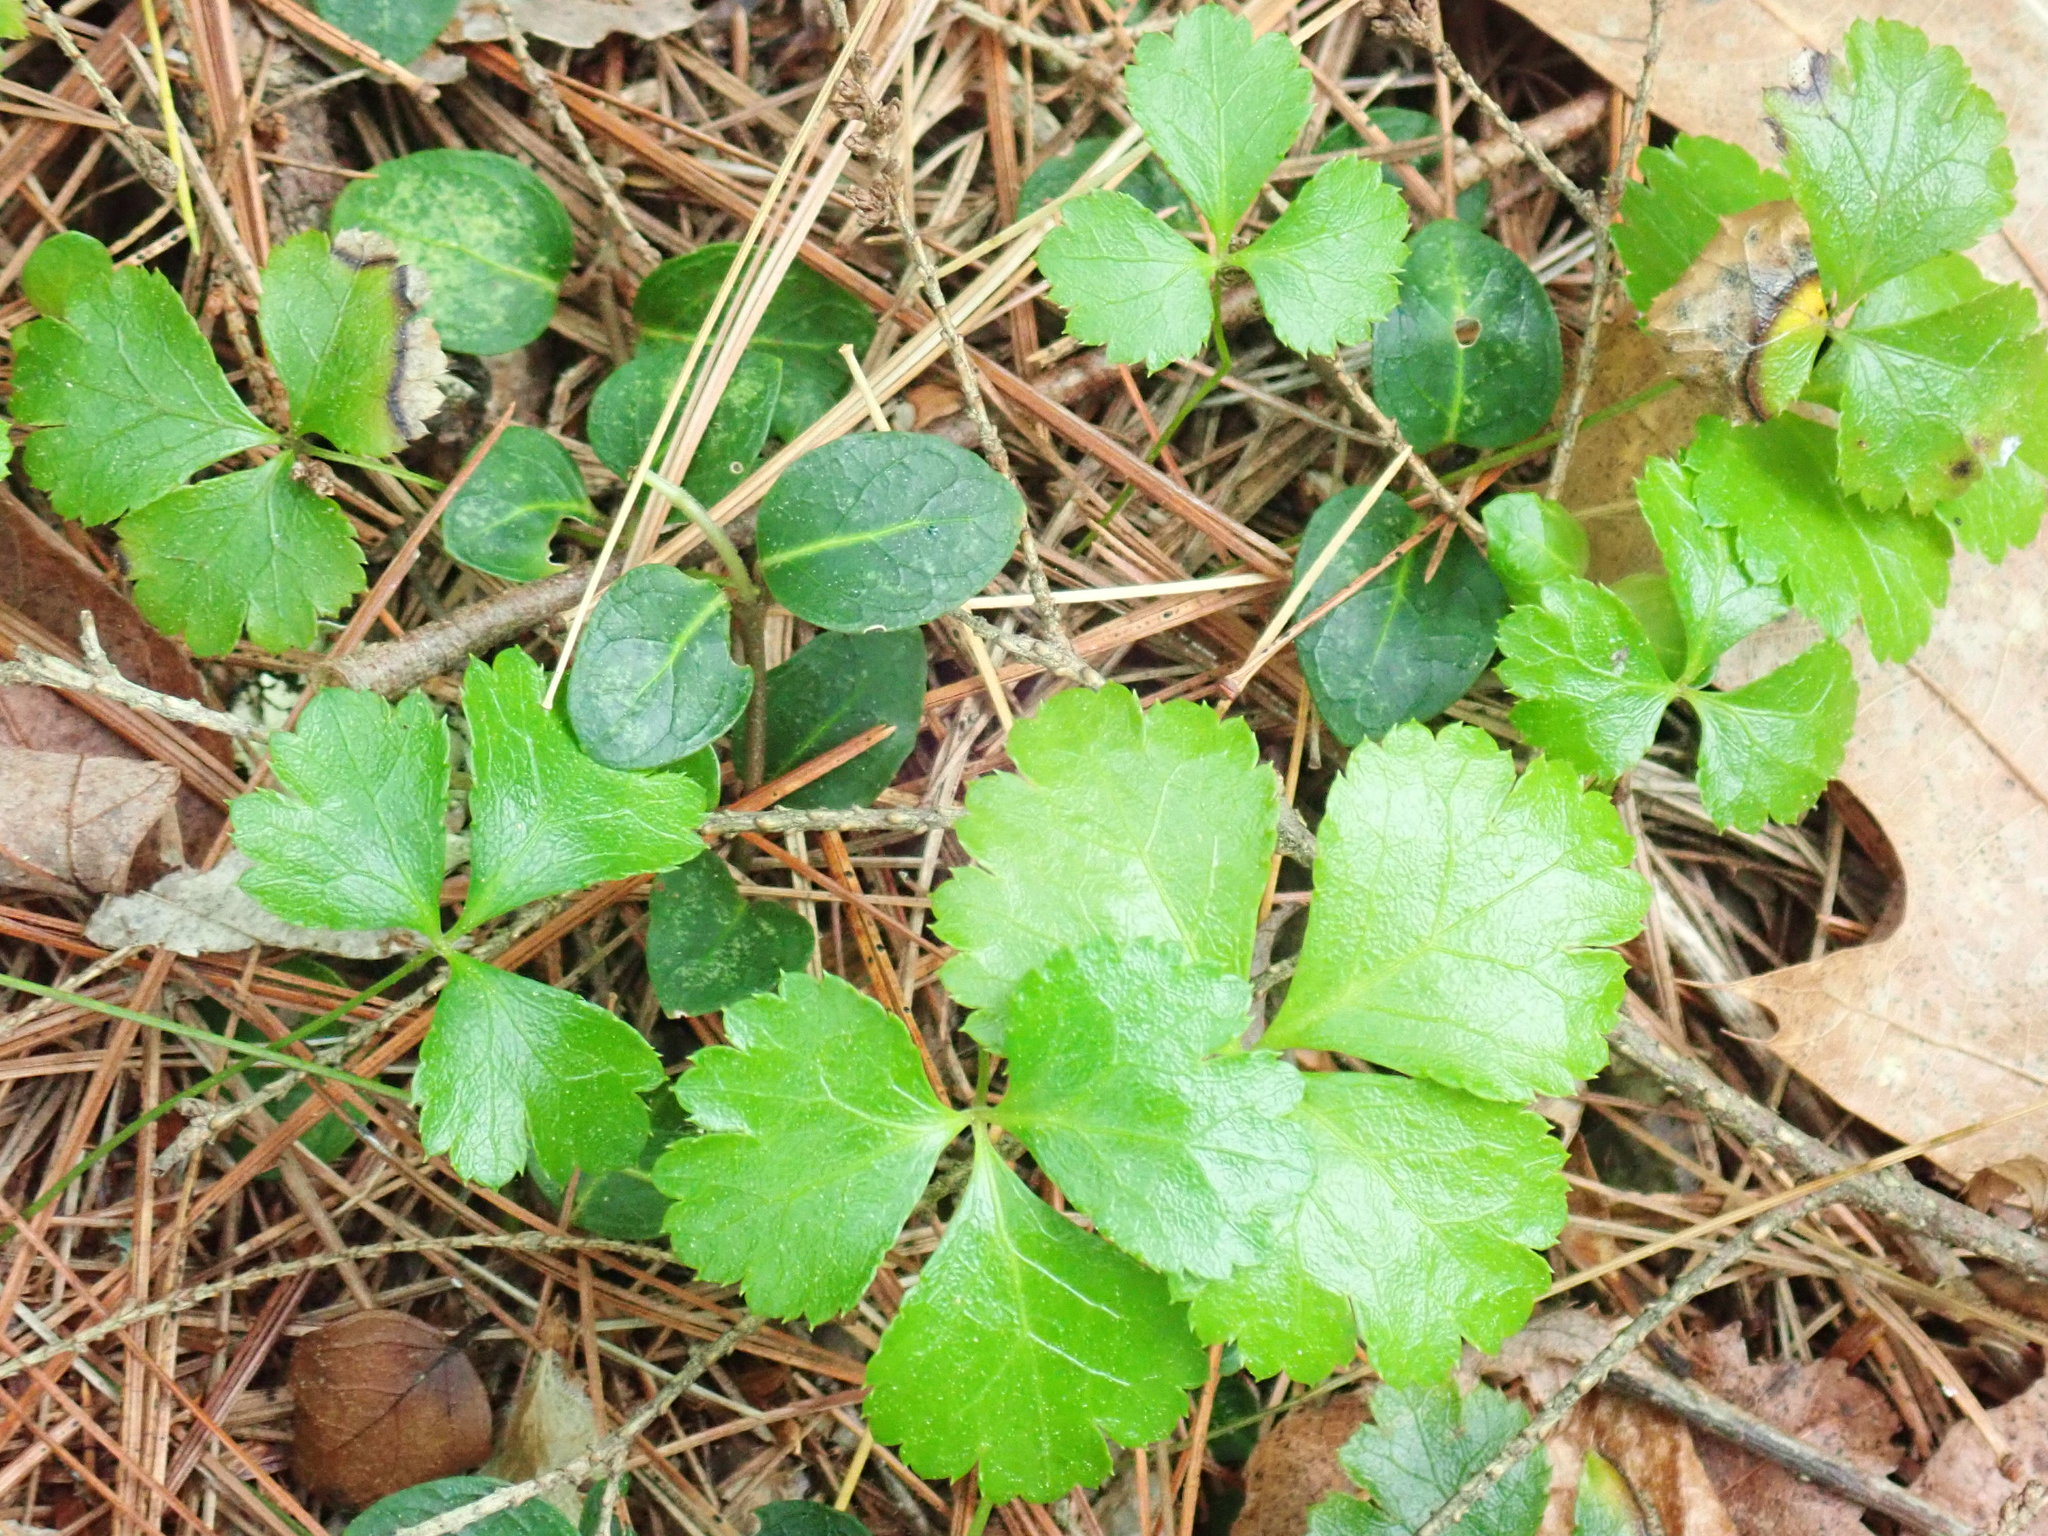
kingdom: Plantae
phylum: Tracheophyta
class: Magnoliopsida
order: Ranunculales
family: Ranunculaceae
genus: Coptis
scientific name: Coptis trifolia
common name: Canker-root
